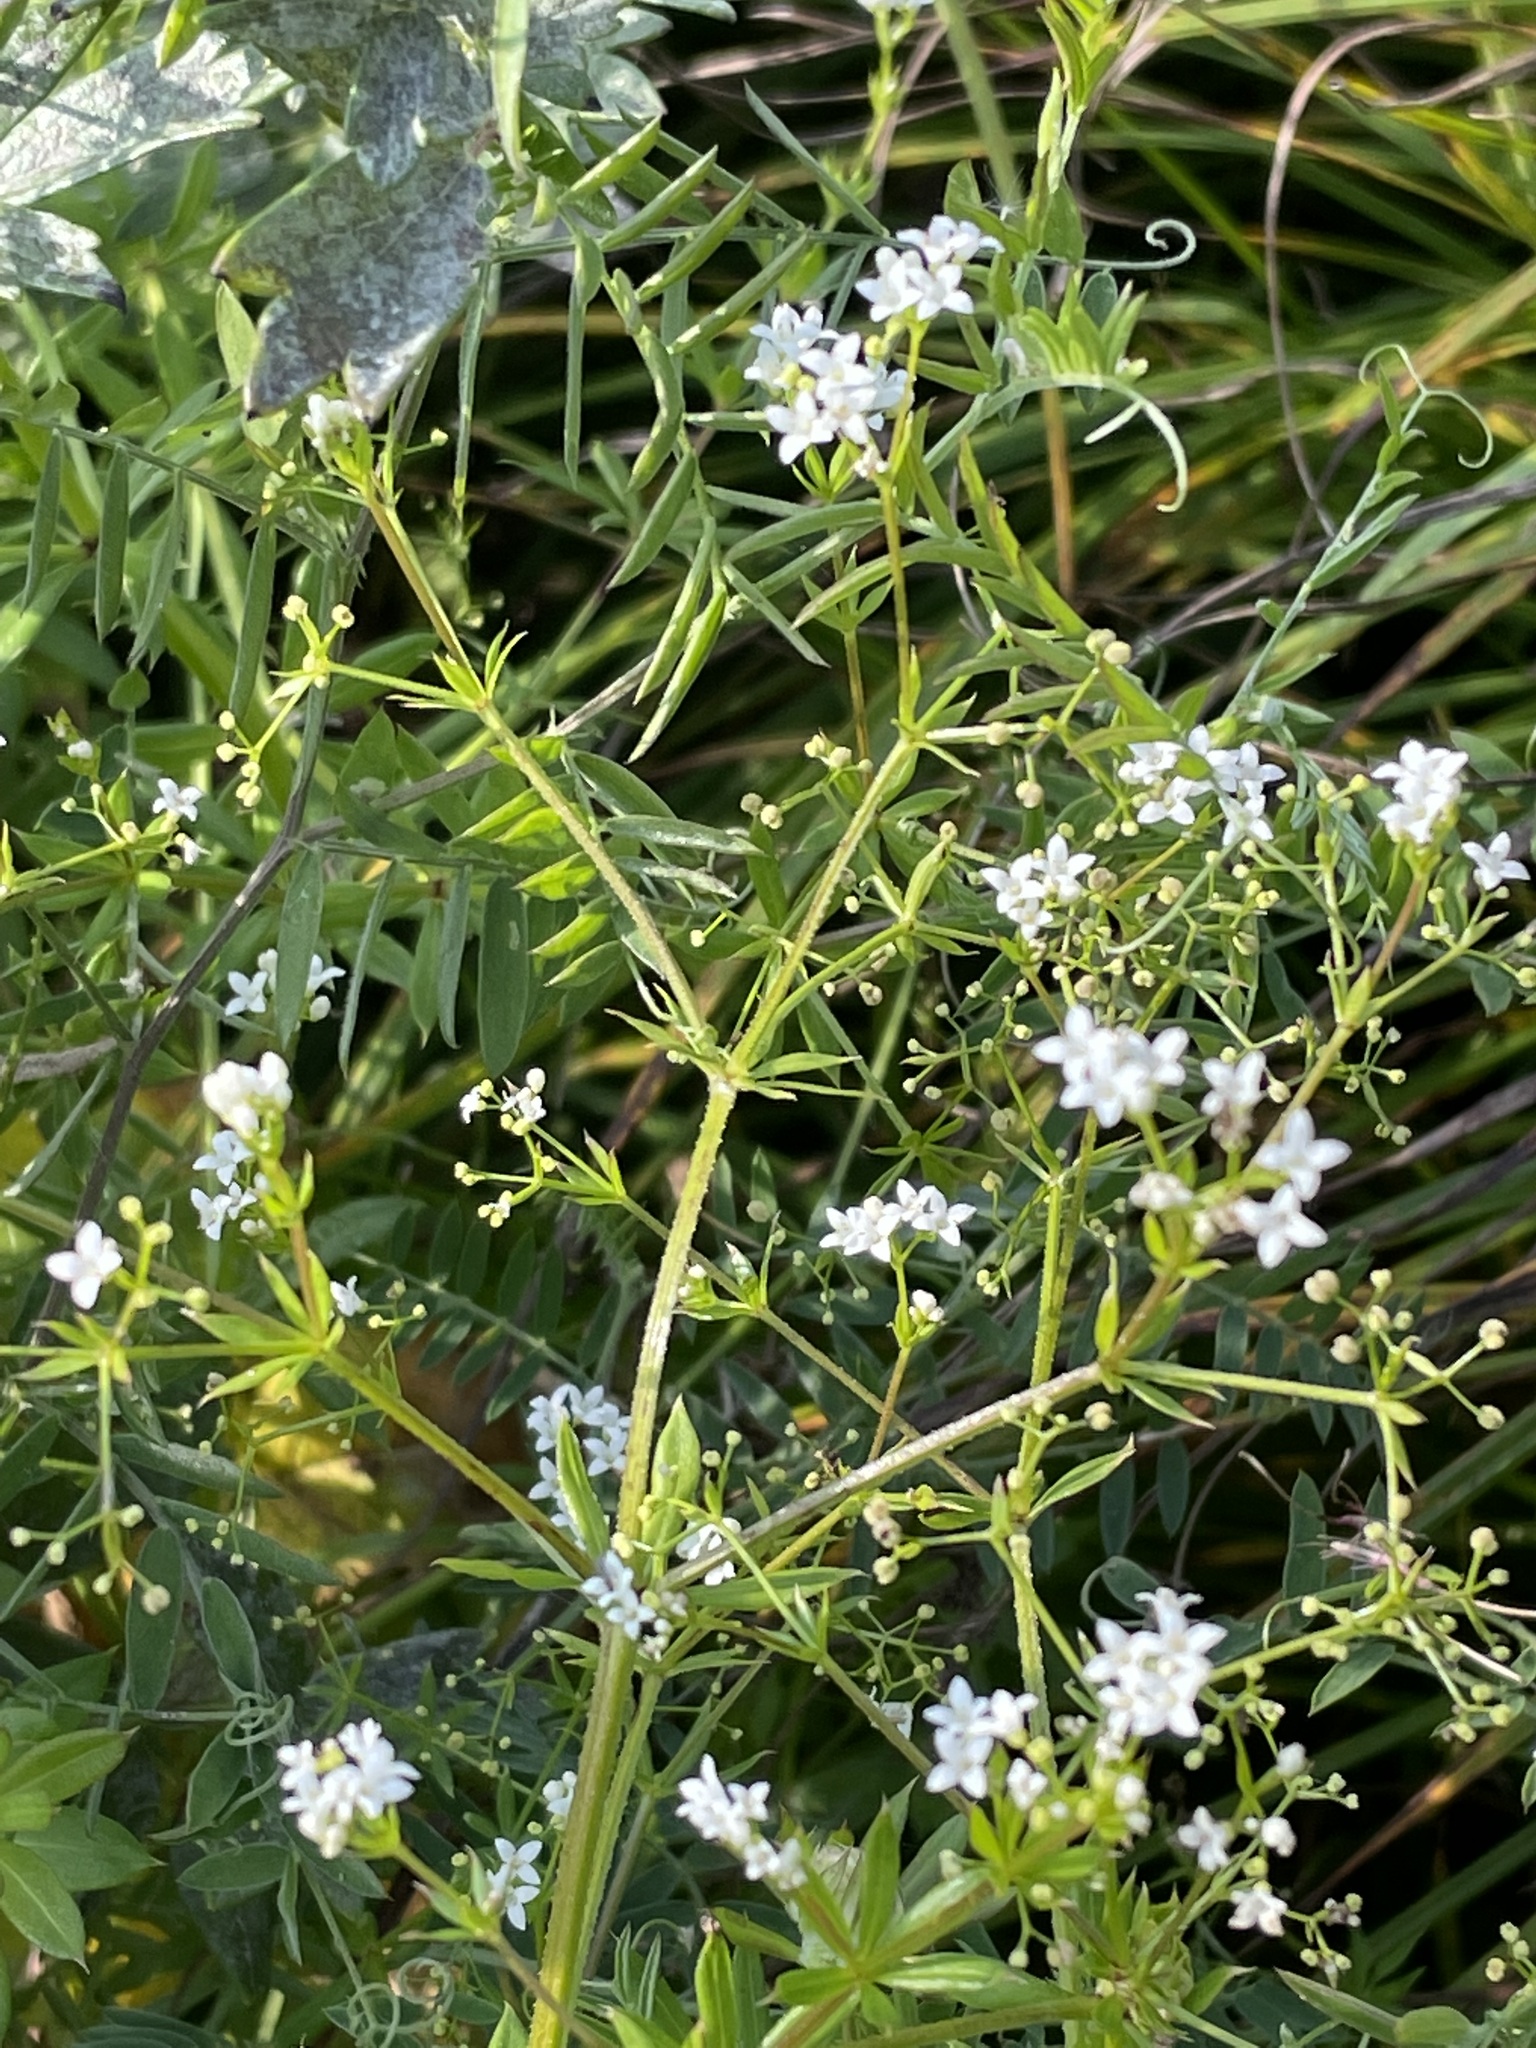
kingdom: Plantae
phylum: Tracheophyta
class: Magnoliopsida
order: Gentianales
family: Rubiaceae
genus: Galium
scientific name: Galium rivale
